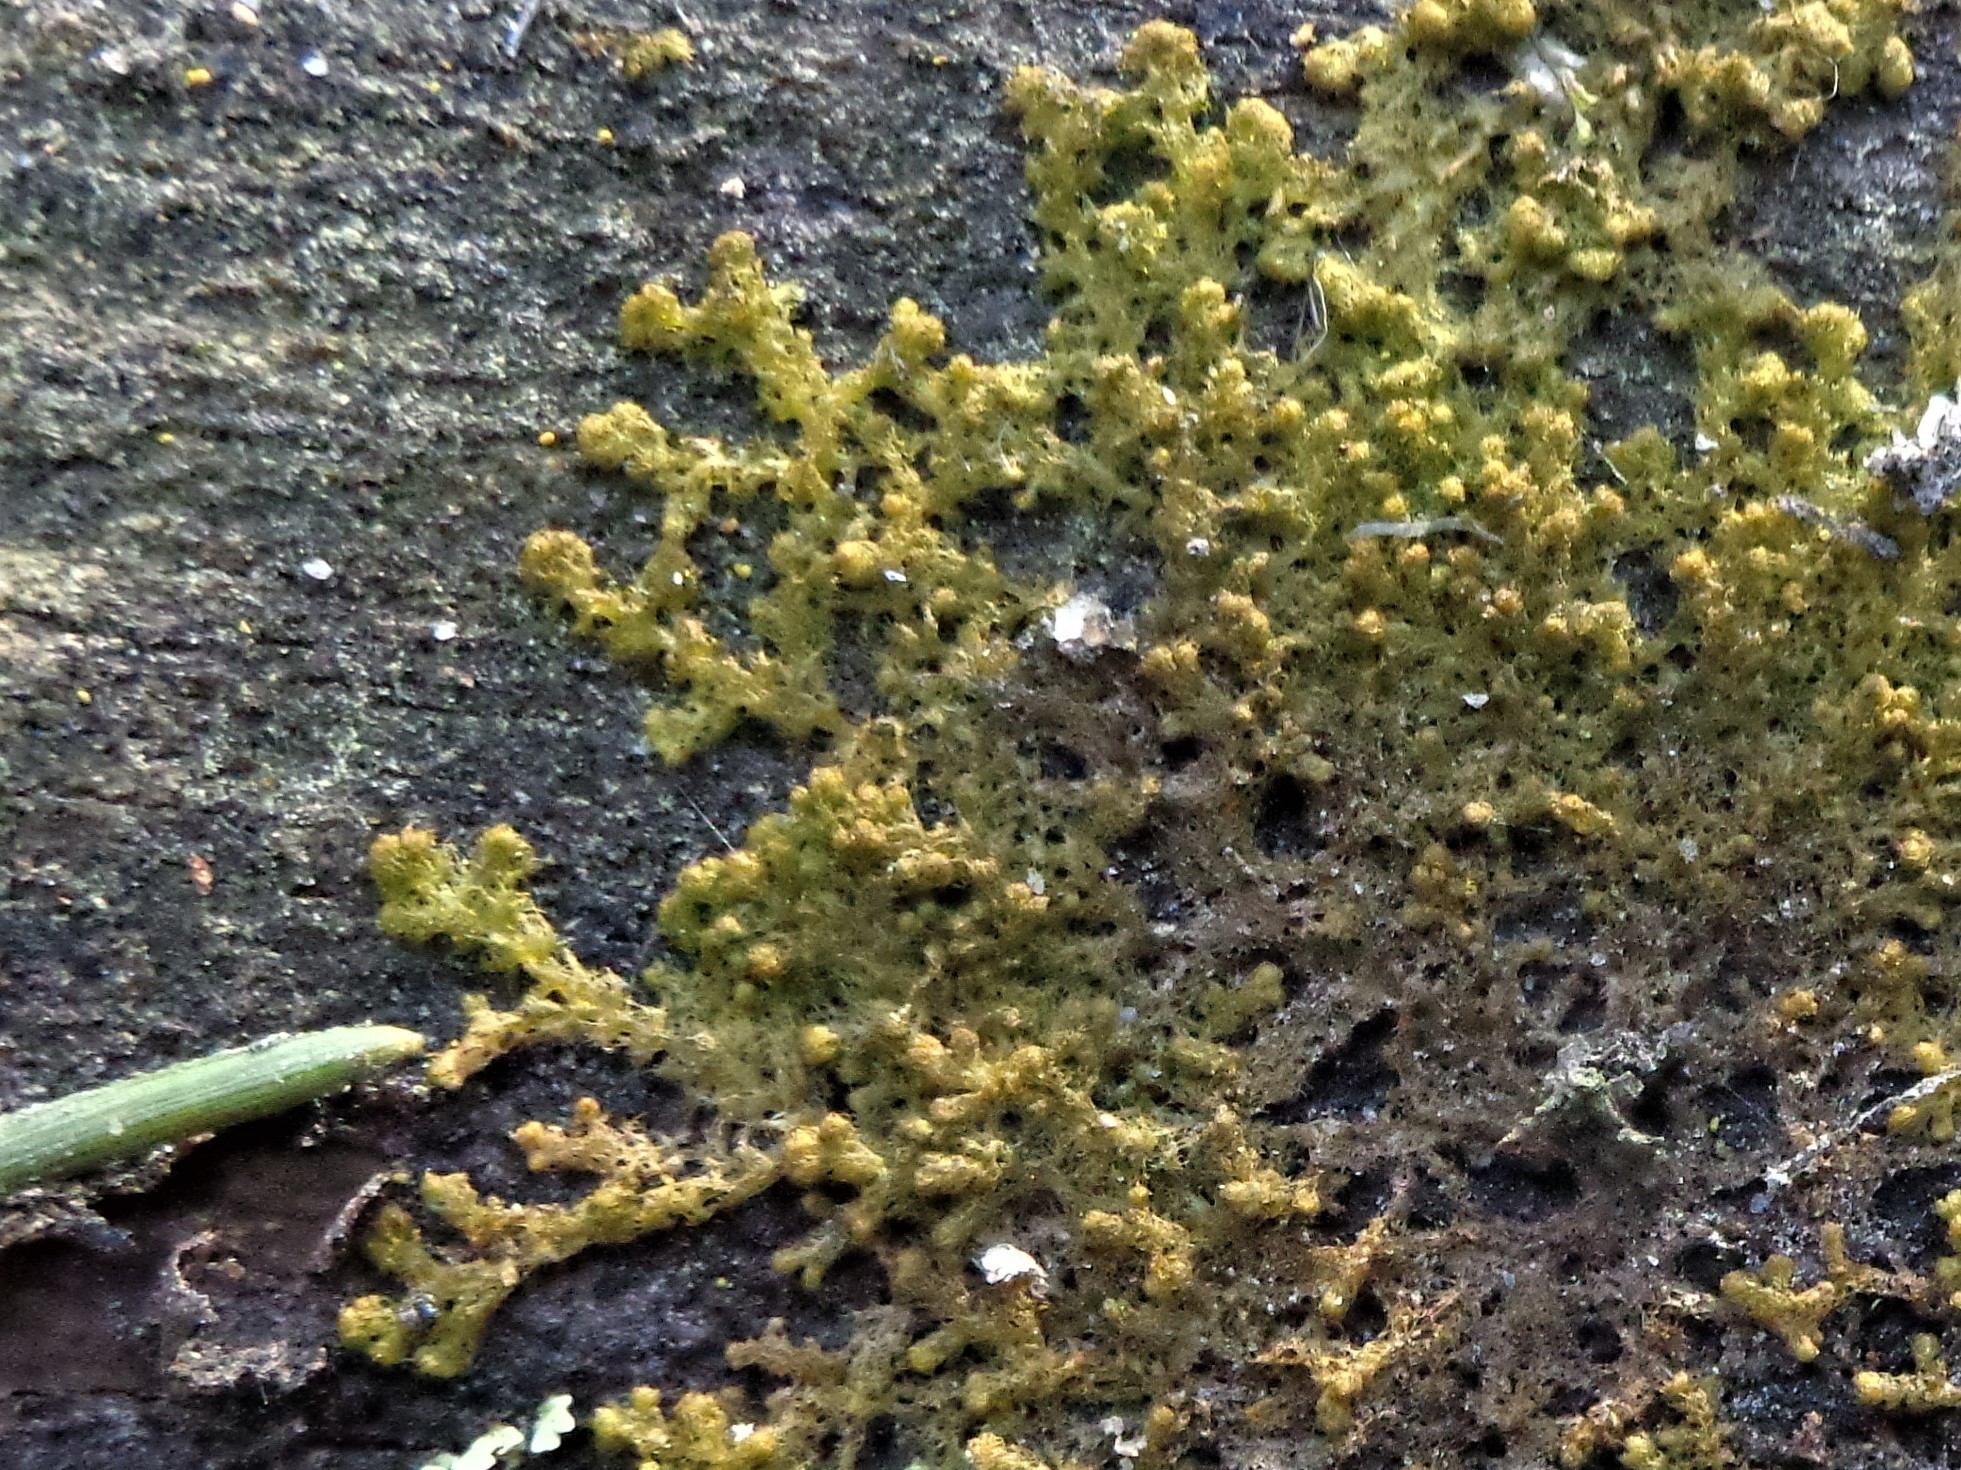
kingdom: Plantae
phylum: Marchantiophyta
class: Jungermanniopsida
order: Ptilidiales
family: Ptilidiaceae
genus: Ptilidium
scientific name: Ptilidium pulcherrimum
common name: Tree fringewort
